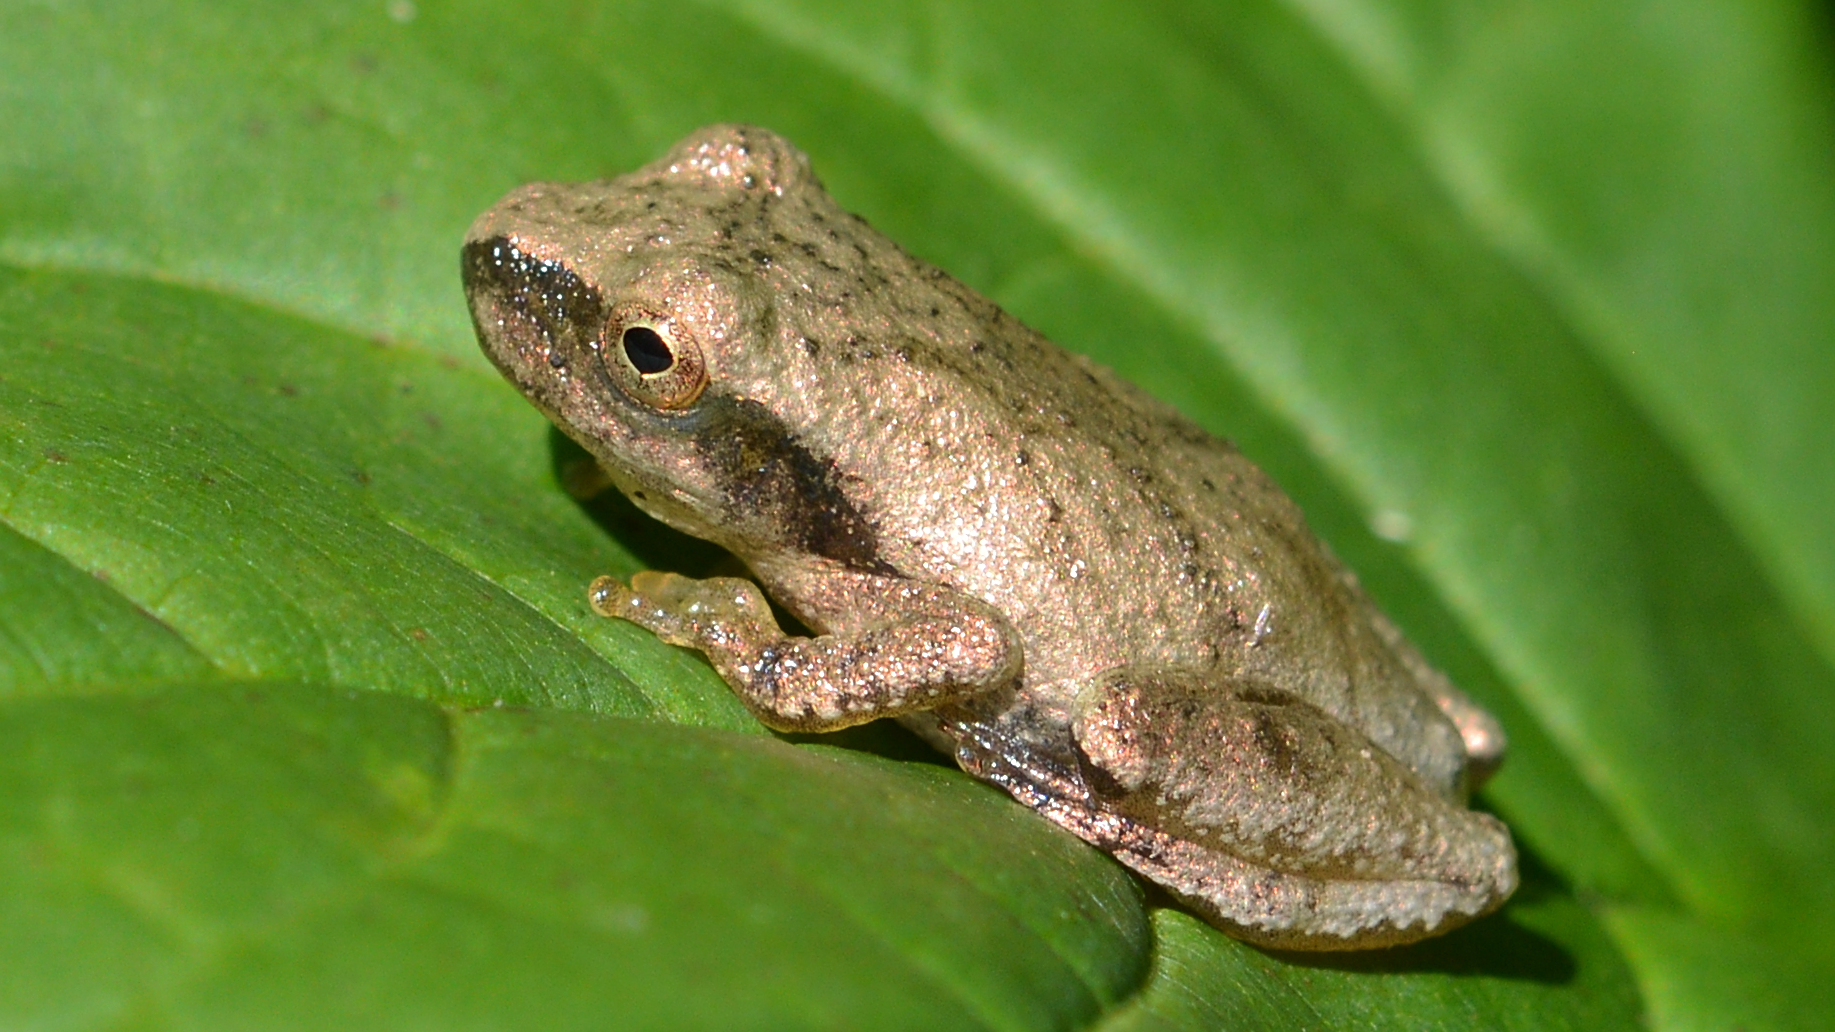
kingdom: Animalia
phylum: Chordata
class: Amphibia
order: Anura
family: Hylidae
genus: Pseudacris
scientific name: Pseudacris crucifer
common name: Spring peeper
